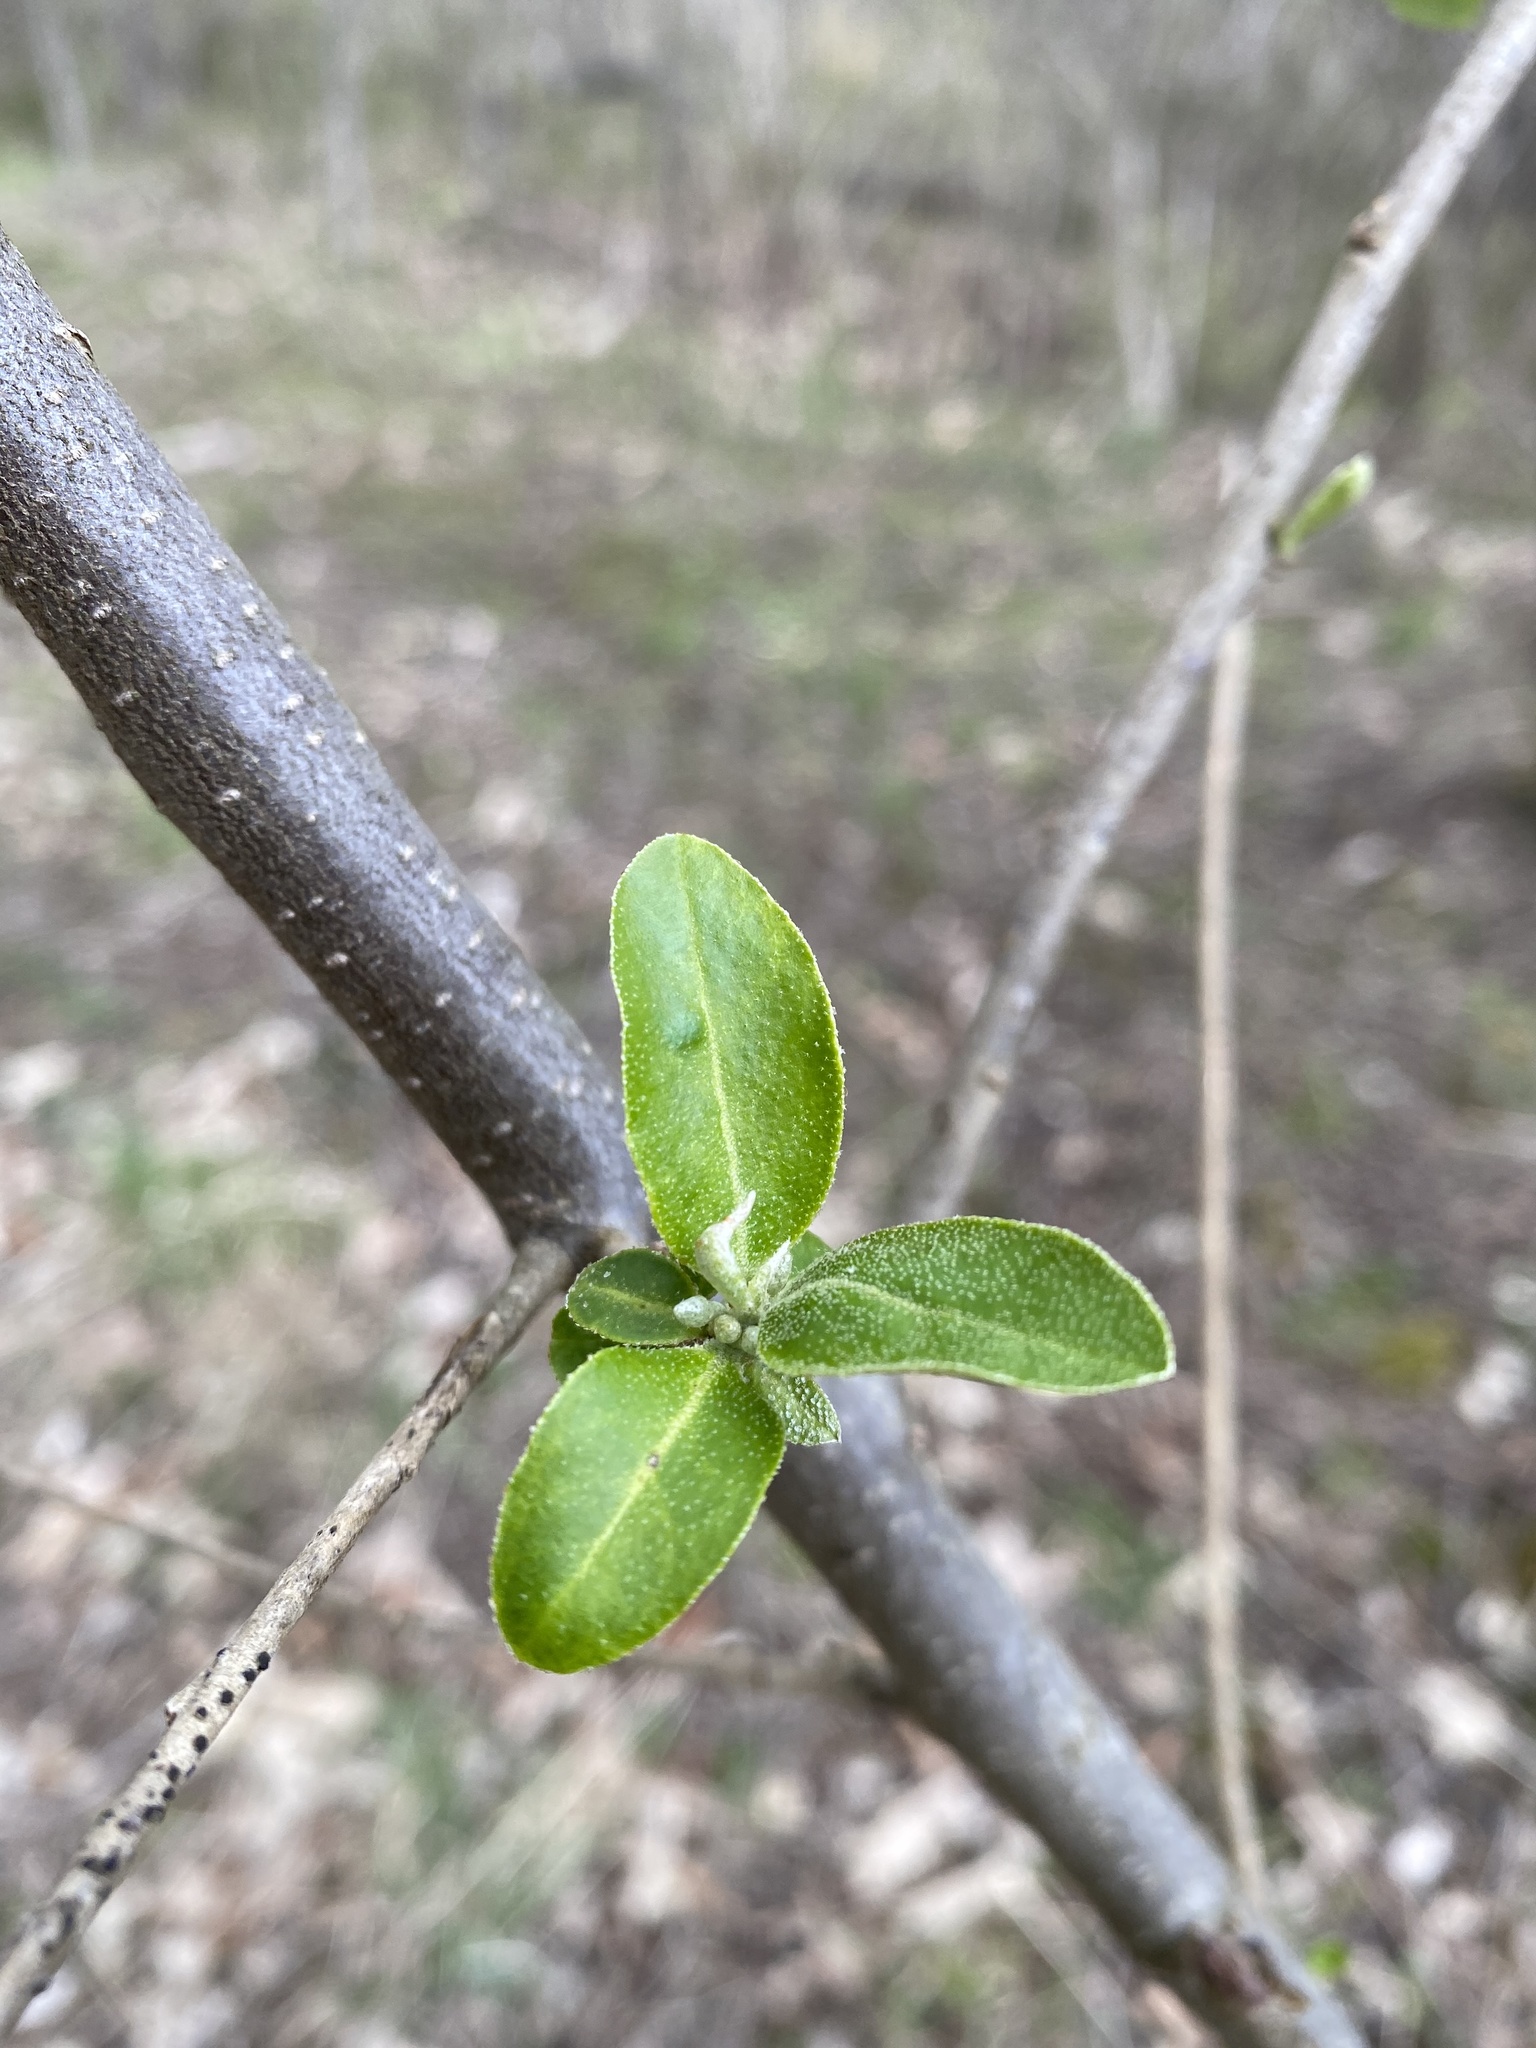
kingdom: Plantae
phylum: Tracheophyta
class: Magnoliopsida
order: Rosales
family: Elaeagnaceae
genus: Elaeagnus
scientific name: Elaeagnus umbellata
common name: Autumn olive
